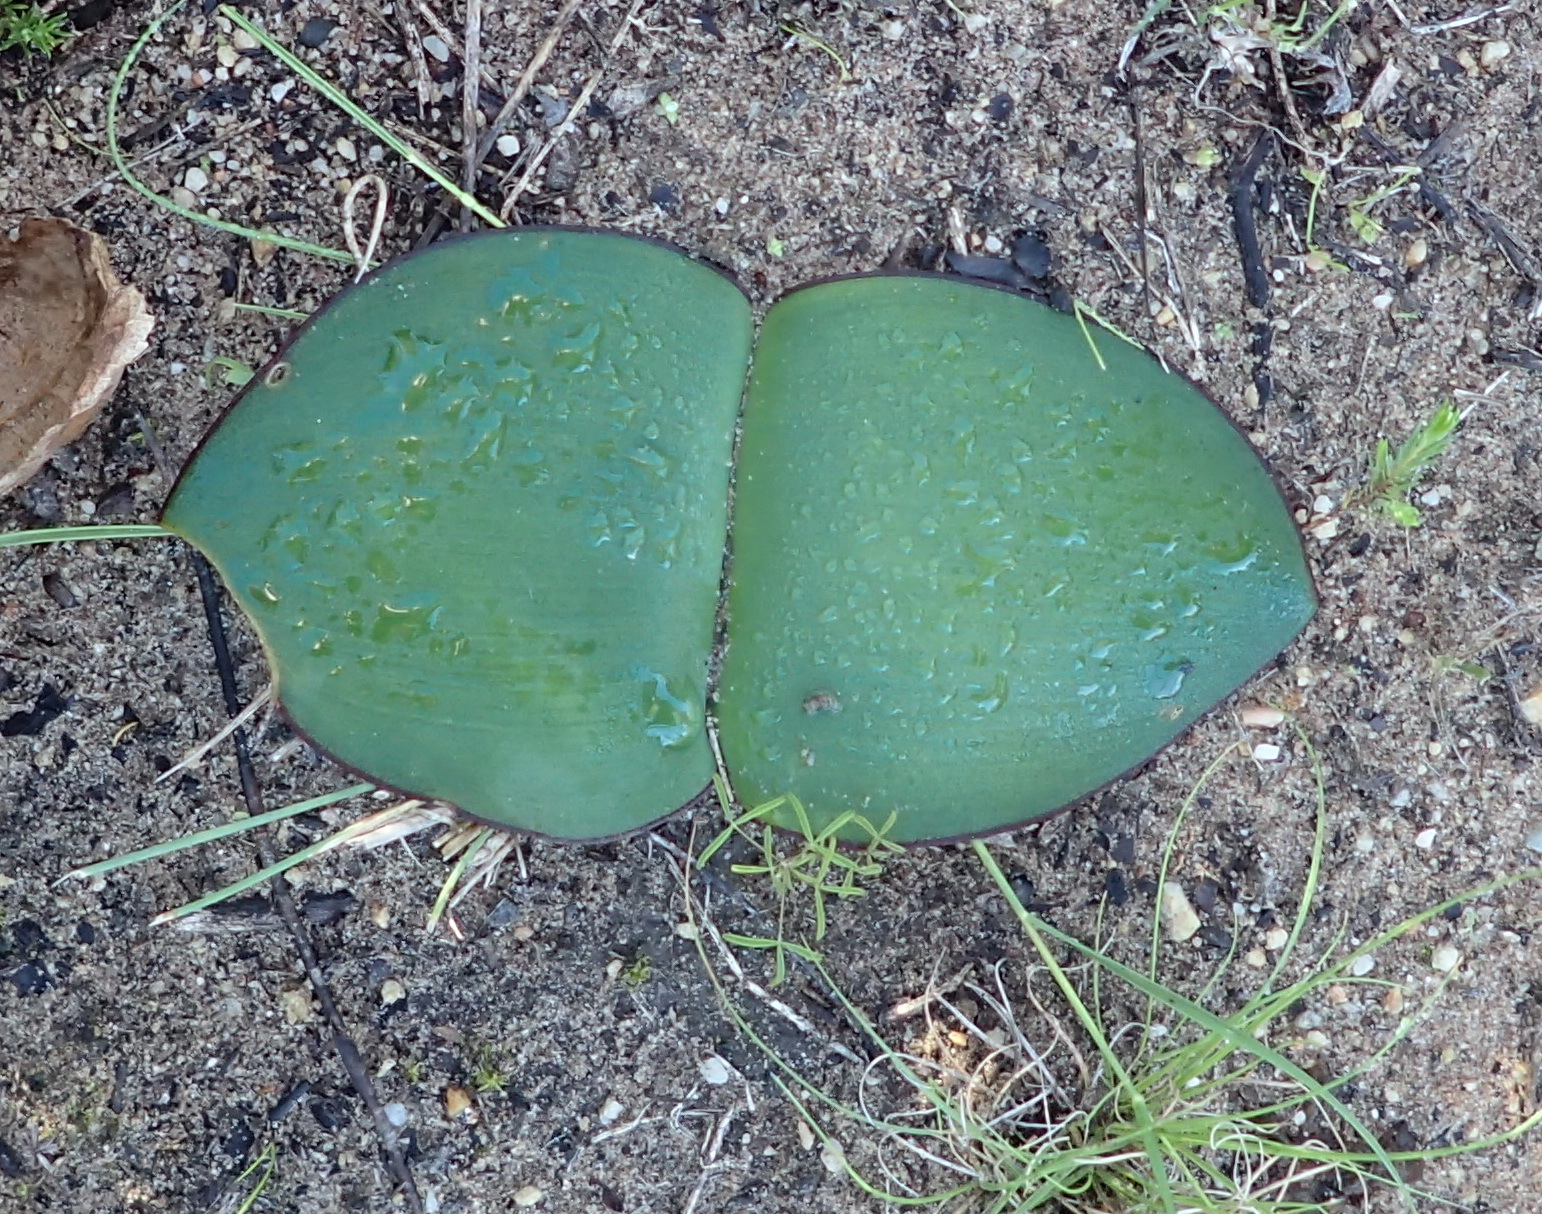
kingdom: Plantae
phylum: Tracheophyta
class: Liliopsida
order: Asparagales
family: Amaryllidaceae
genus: Haemanthus
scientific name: Haemanthus sanguineus
